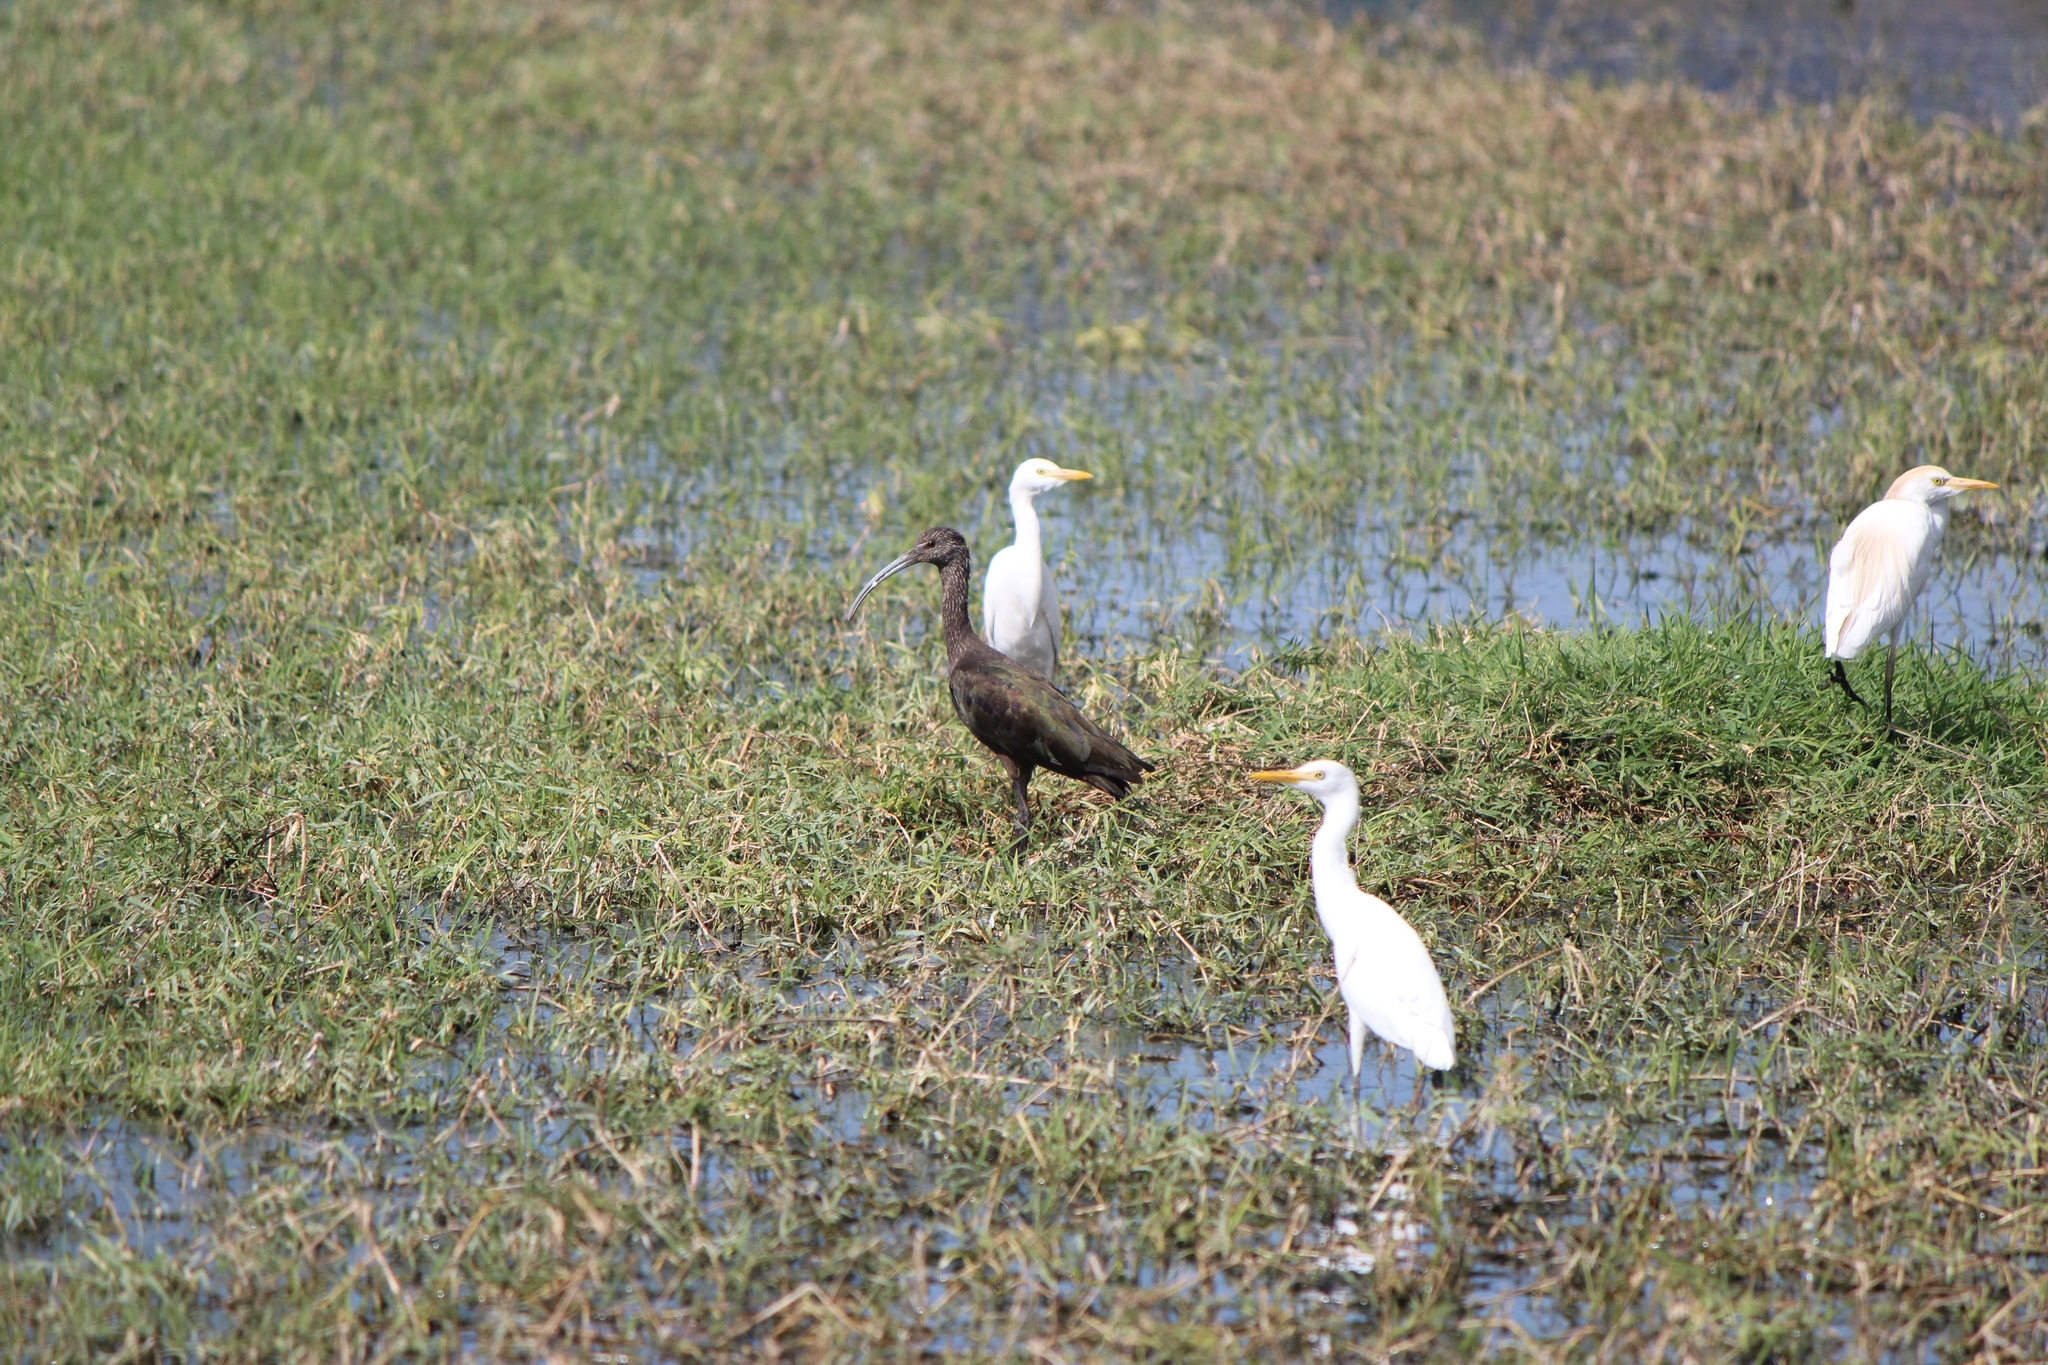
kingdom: Animalia
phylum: Chordata
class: Aves
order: Pelecaniformes
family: Threskiornithidae
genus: Plegadis
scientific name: Plegadis chihi
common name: White-faced ibis
